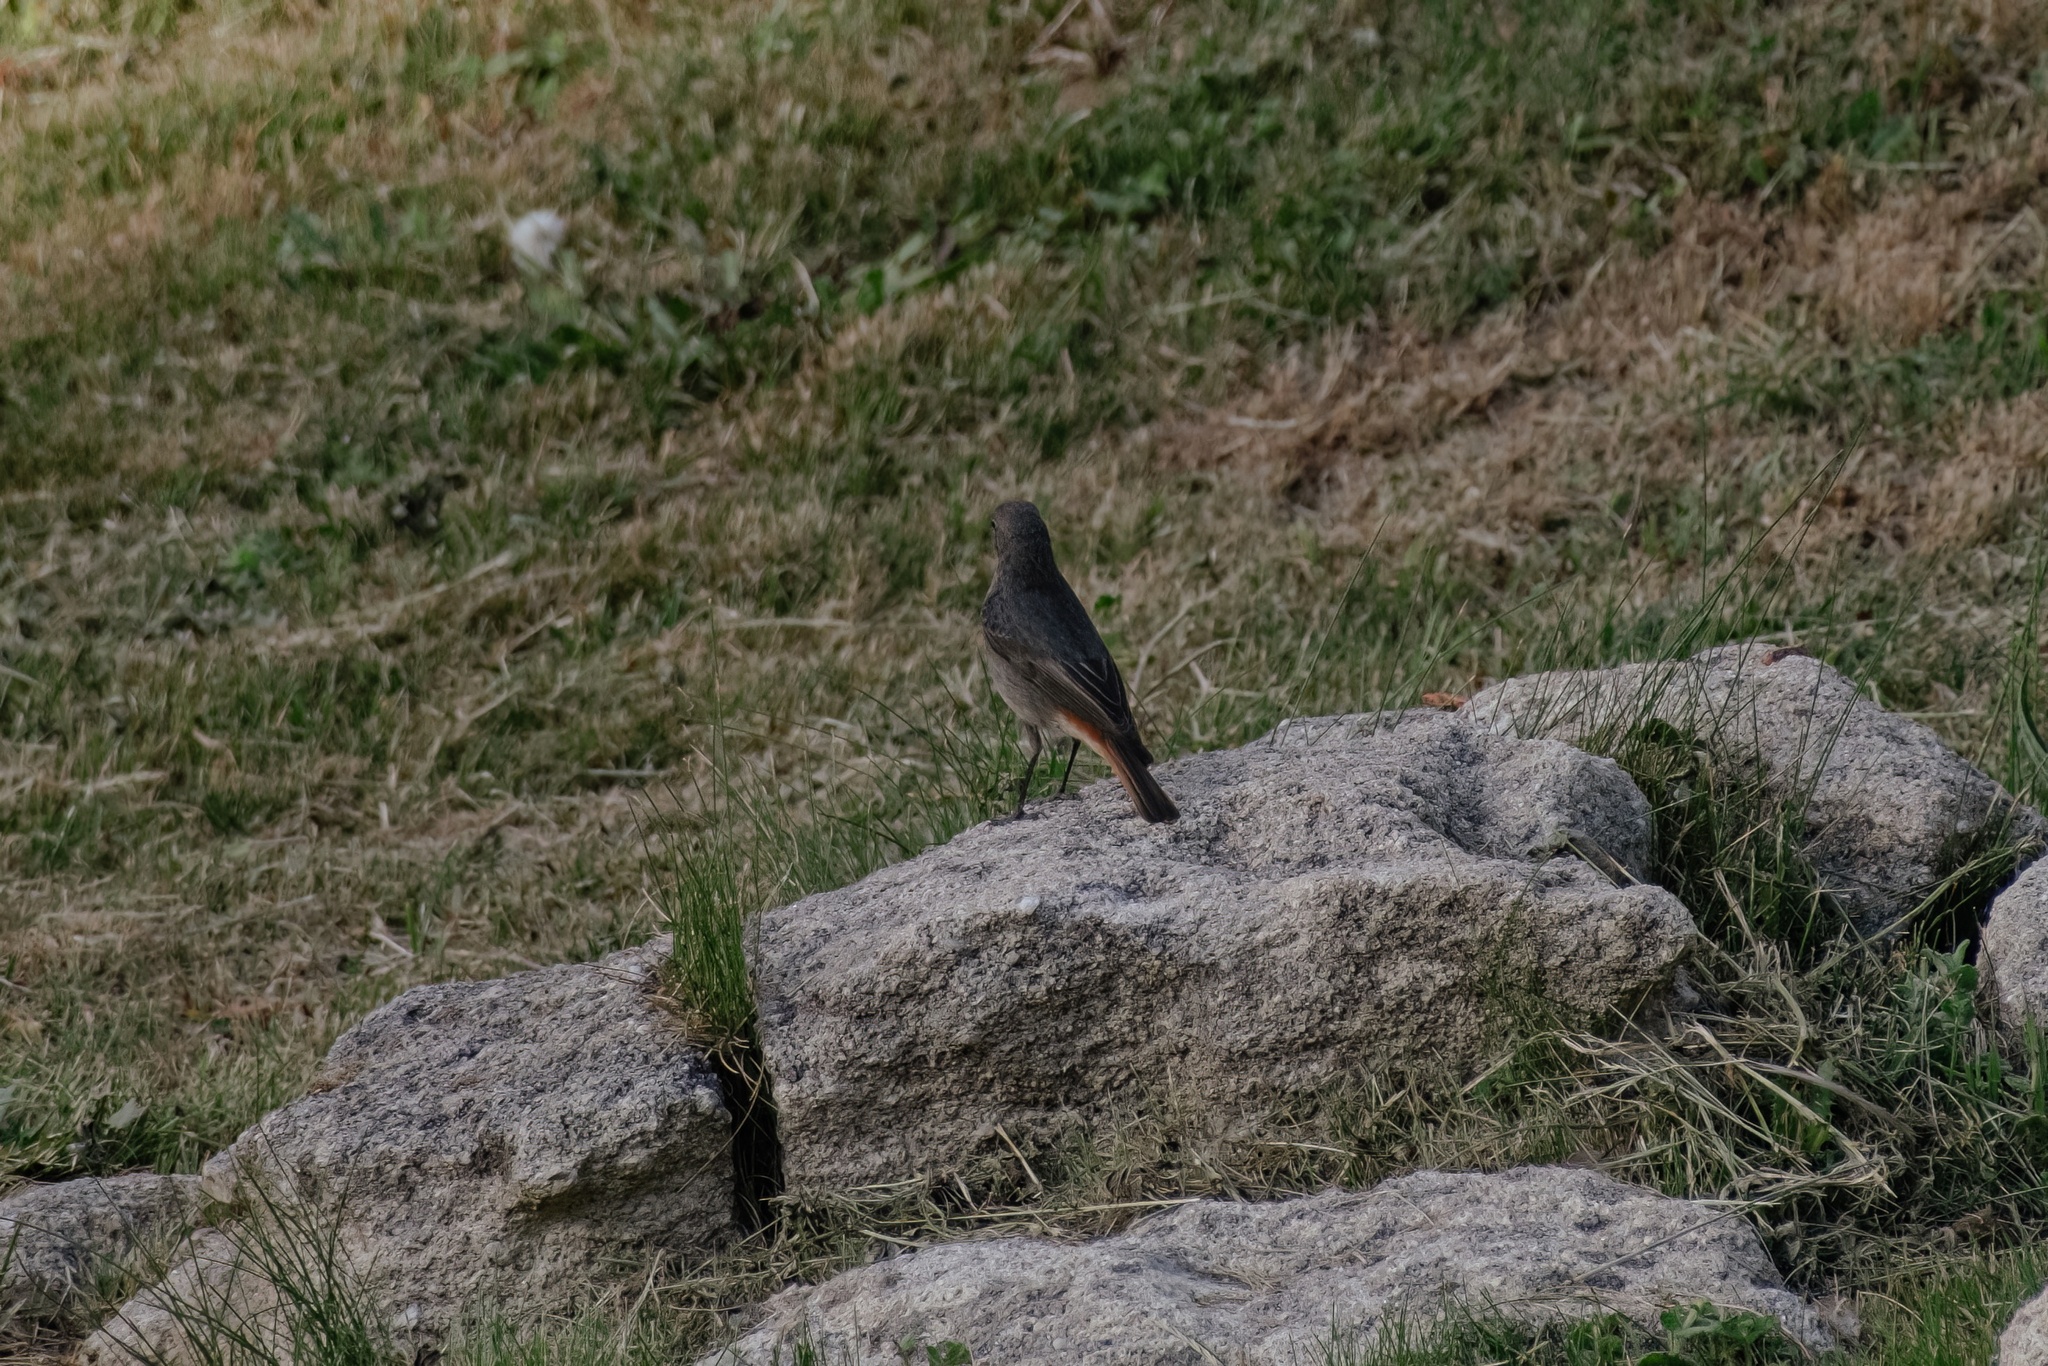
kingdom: Animalia
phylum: Chordata
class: Aves
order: Passeriformes
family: Muscicapidae
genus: Phoenicurus
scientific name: Phoenicurus ochruros
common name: Black redstart
